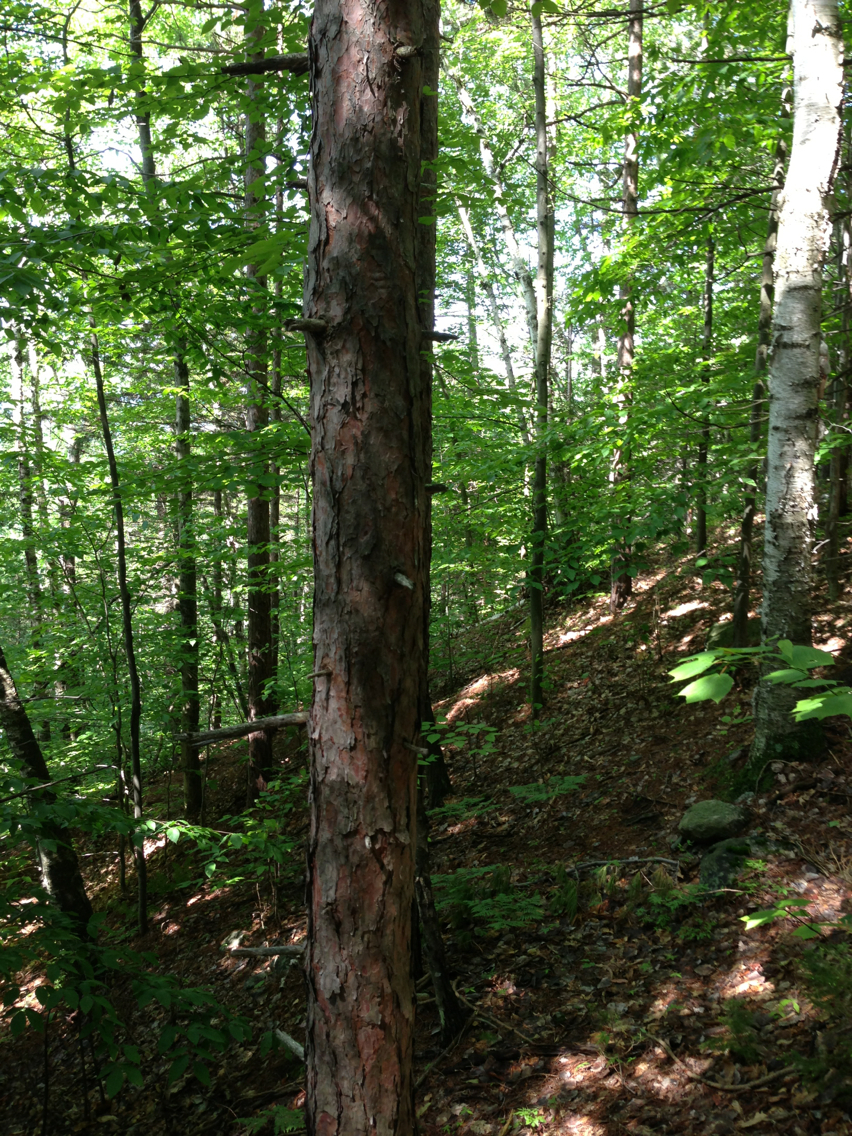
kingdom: Plantae
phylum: Tracheophyta
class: Pinopsida
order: Pinales
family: Pinaceae
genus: Pinus
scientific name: Pinus resinosa
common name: Norway pine
